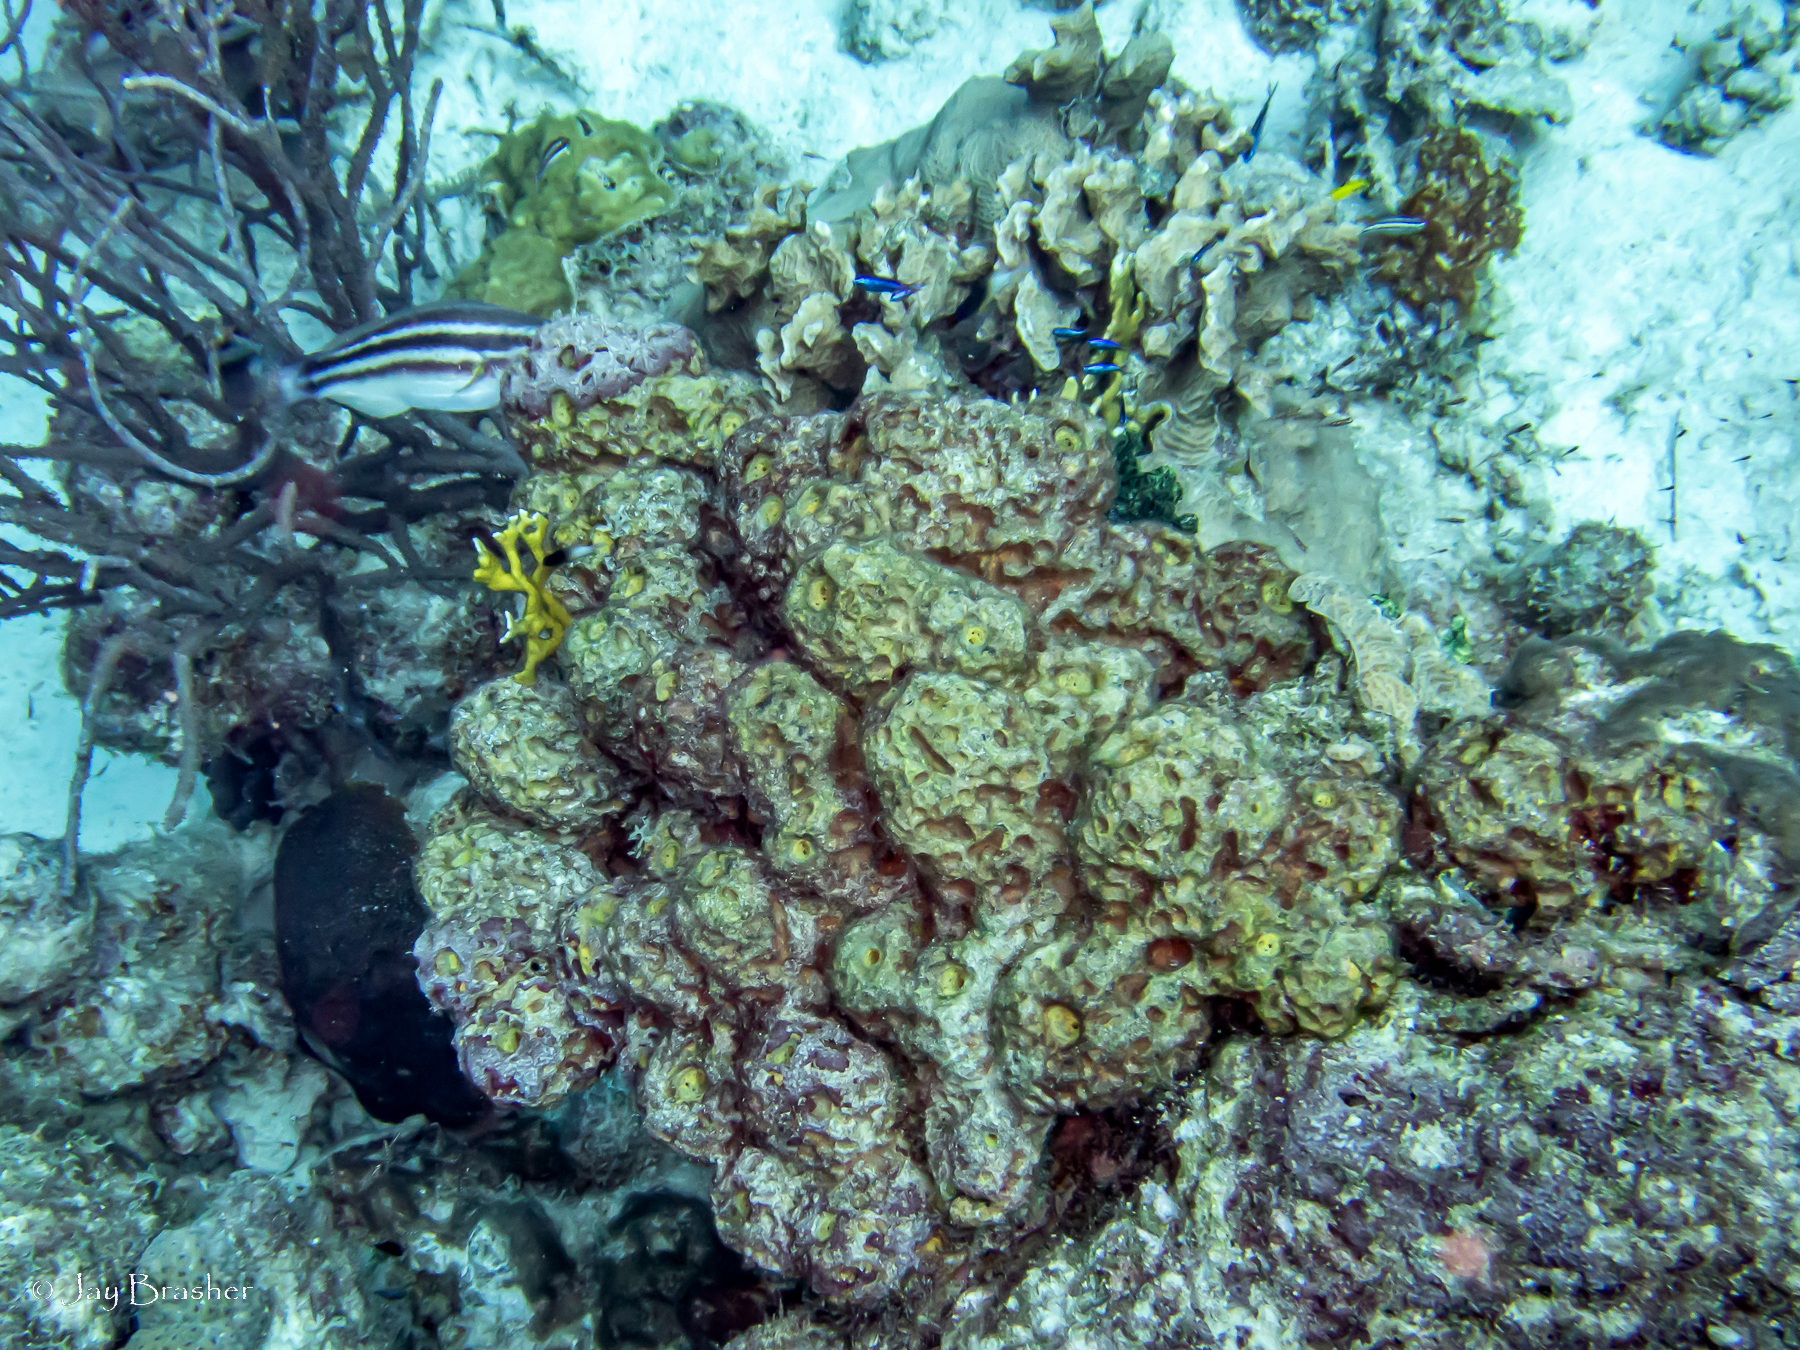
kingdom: Animalia
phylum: Porifera
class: Demospongiae
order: Verongiida
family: Aplysinidae
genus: Verongula
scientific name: Verongula rigida
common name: Pitted sponge
